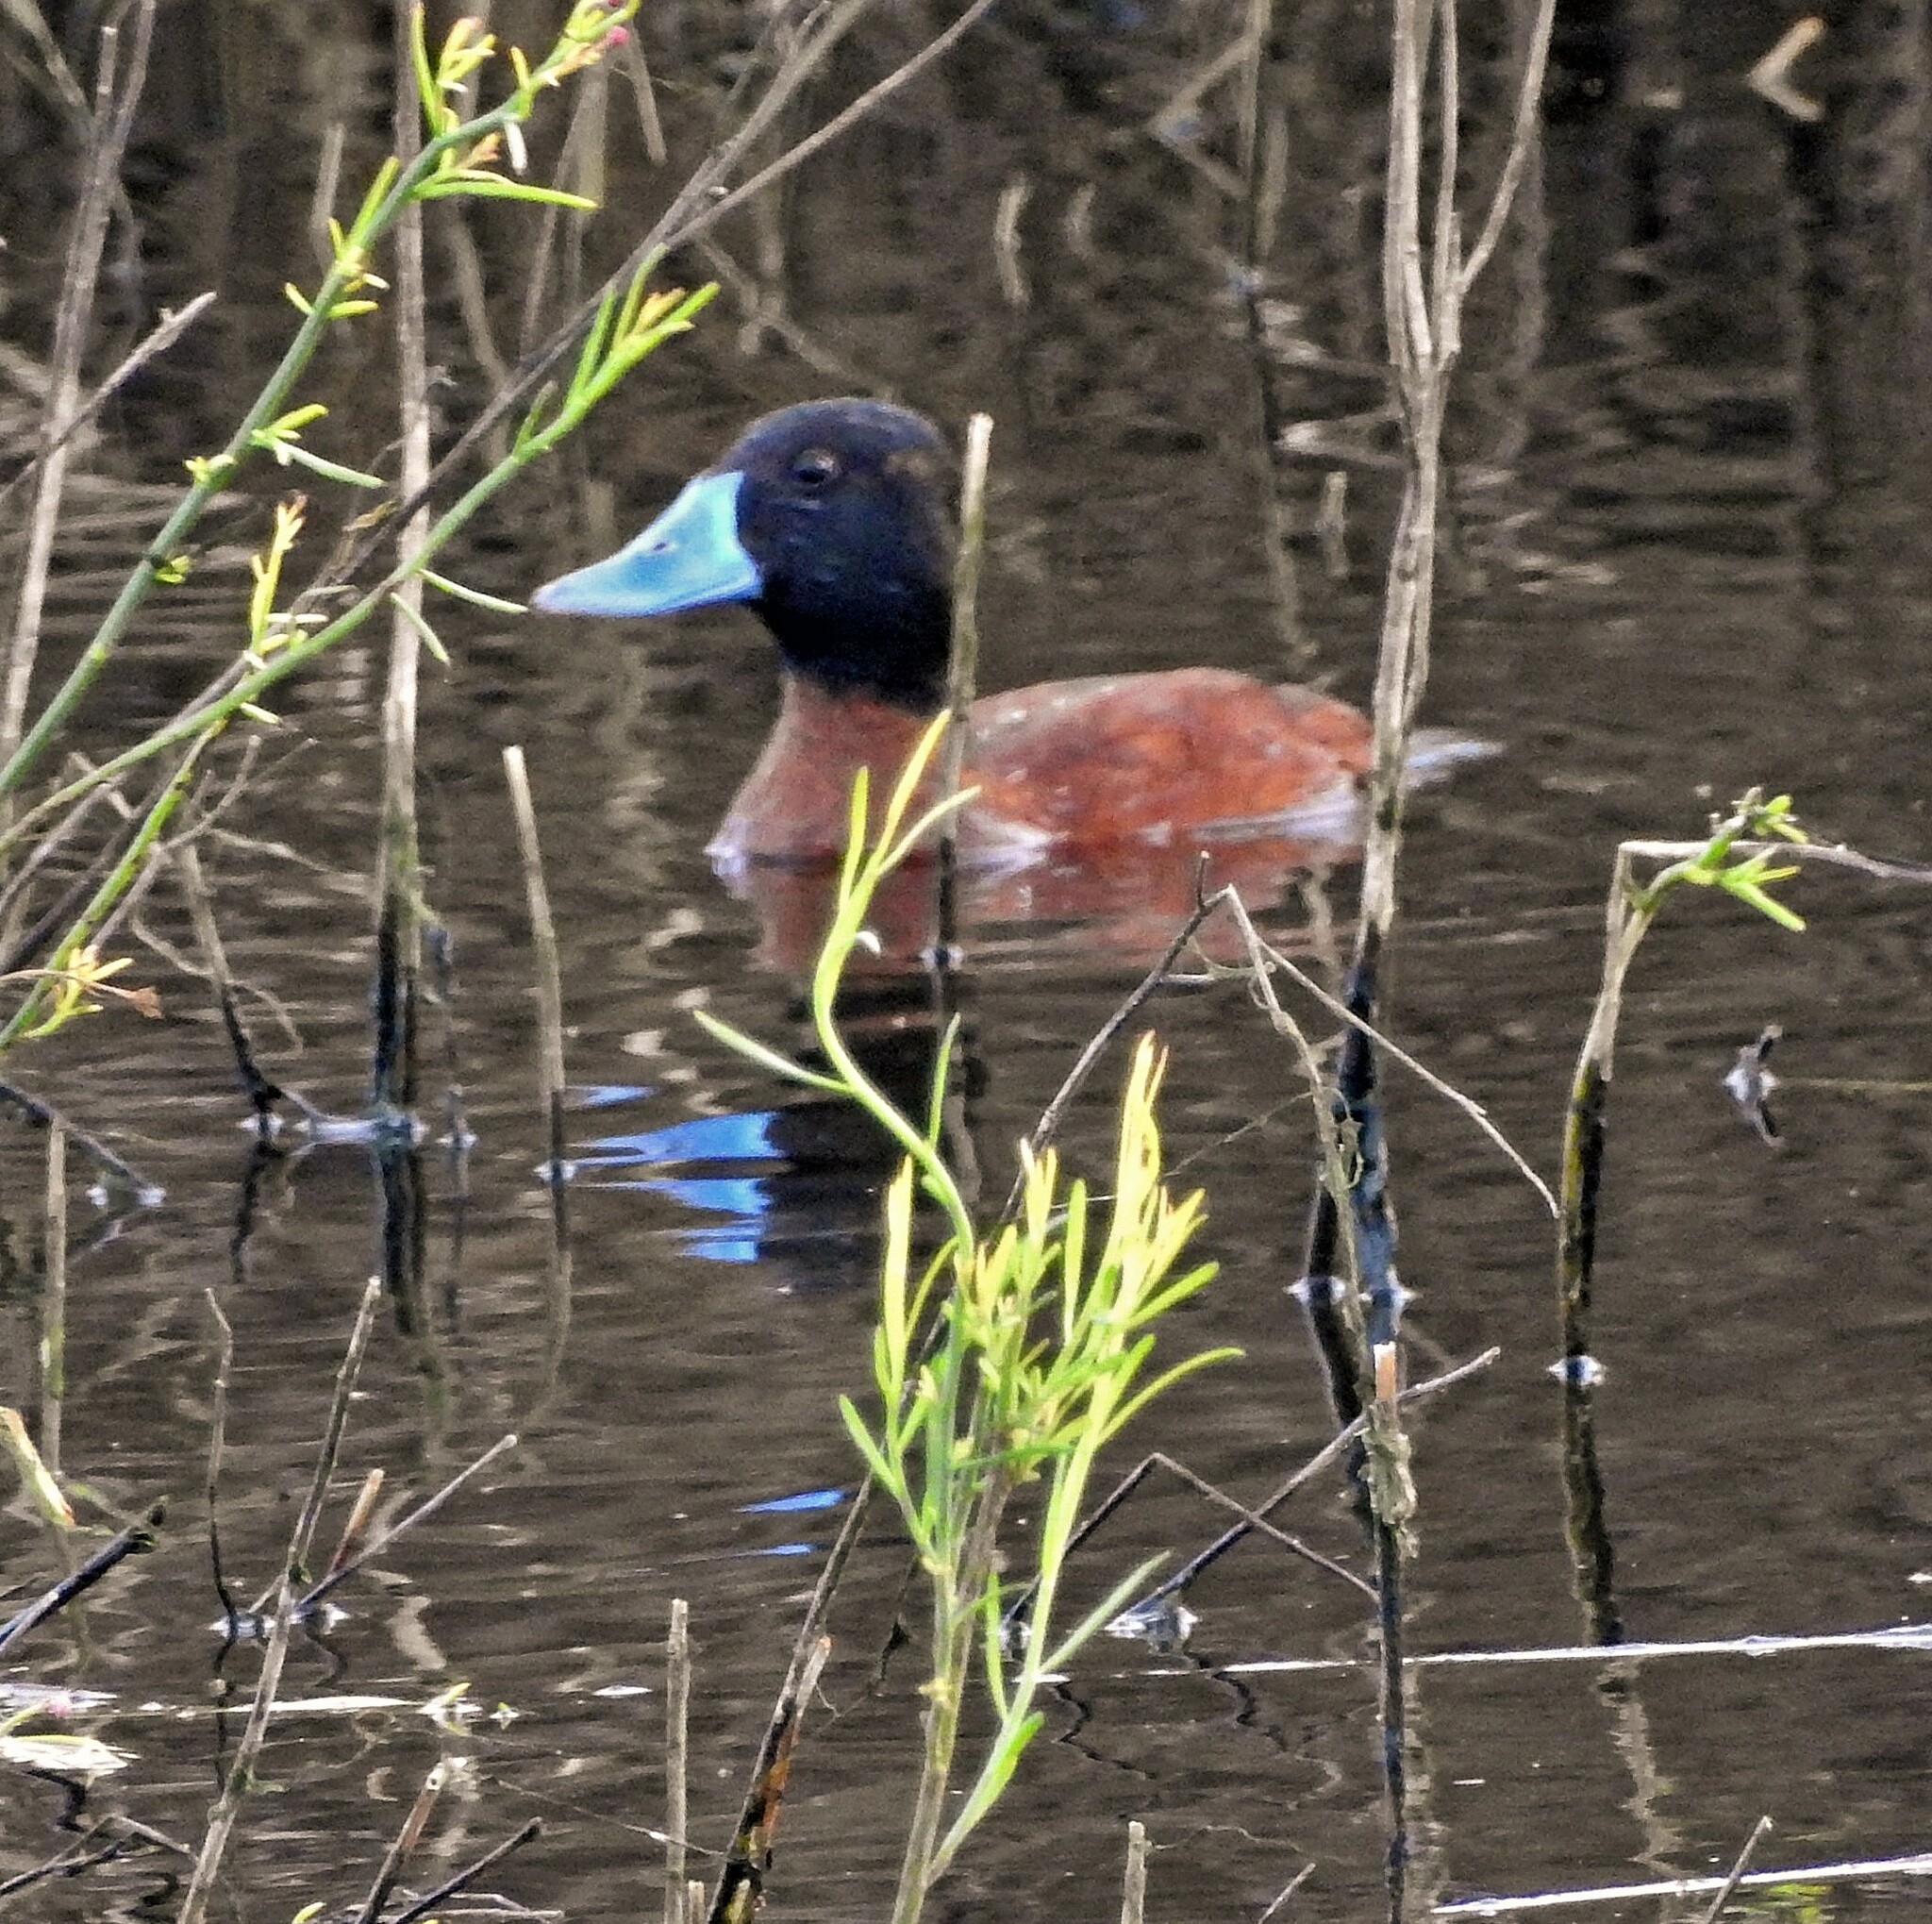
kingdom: Animalia
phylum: Chordata
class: Aves
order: Anseriformes
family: Anatidae
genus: Oxyura
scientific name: Oxyura vittata
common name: Lake duck
